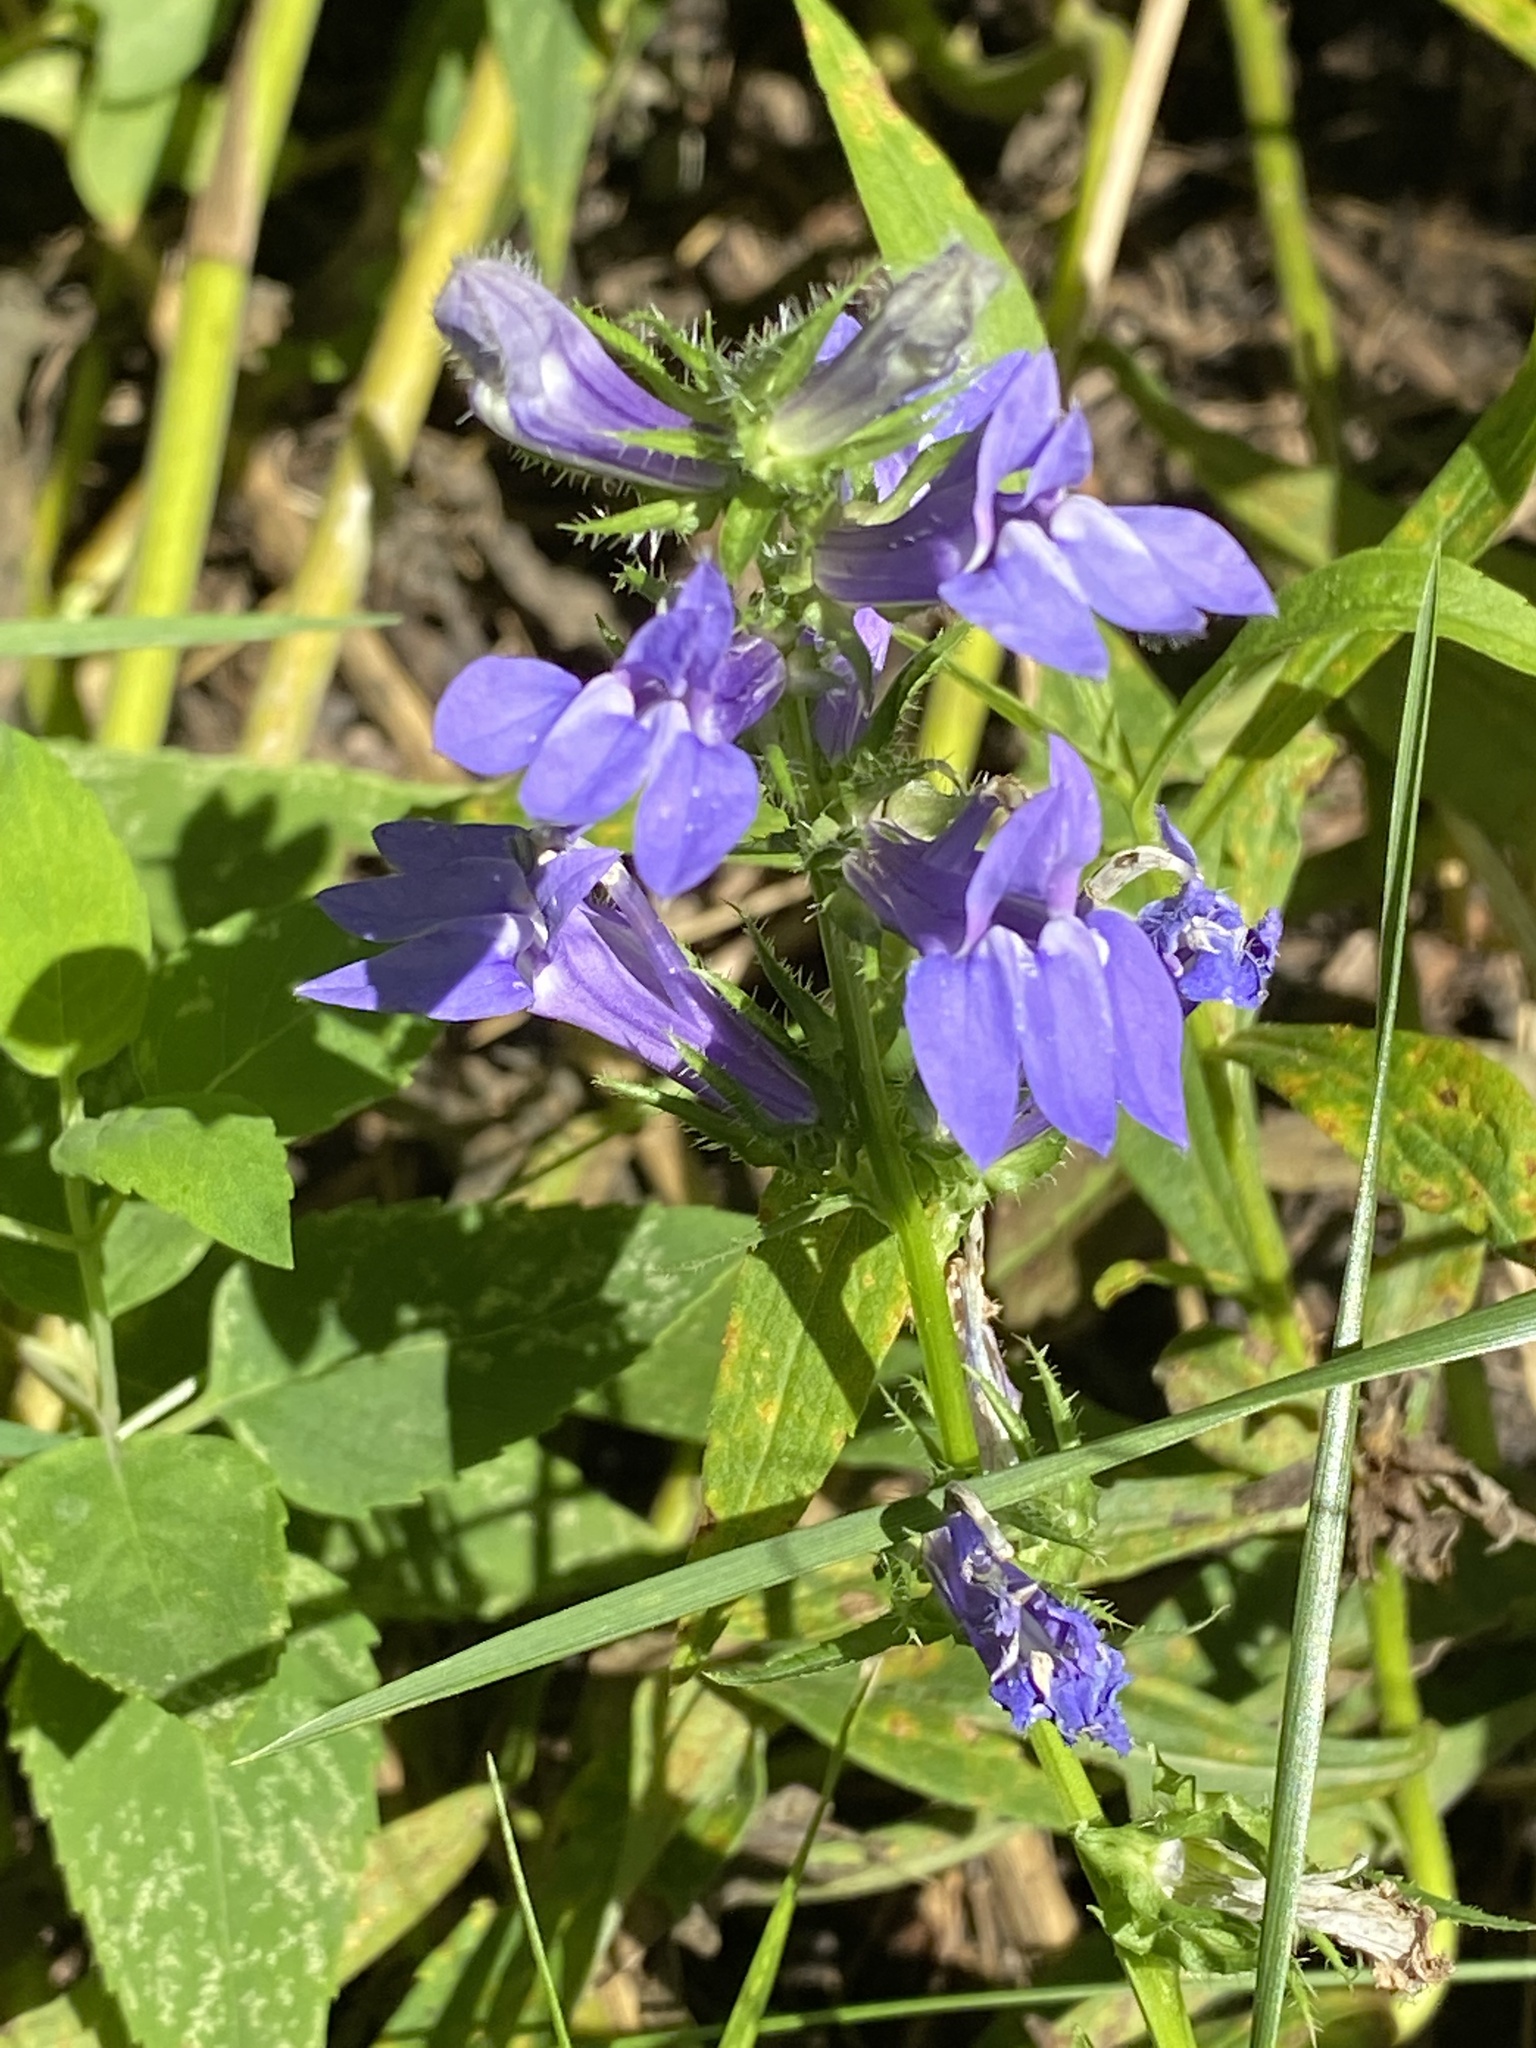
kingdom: Plantae
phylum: Tracheophyta
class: Magnoliopsida
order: Asterales
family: Campanulaceae
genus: Lobelia
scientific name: Lobelia siphilitica
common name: Great lobelia
